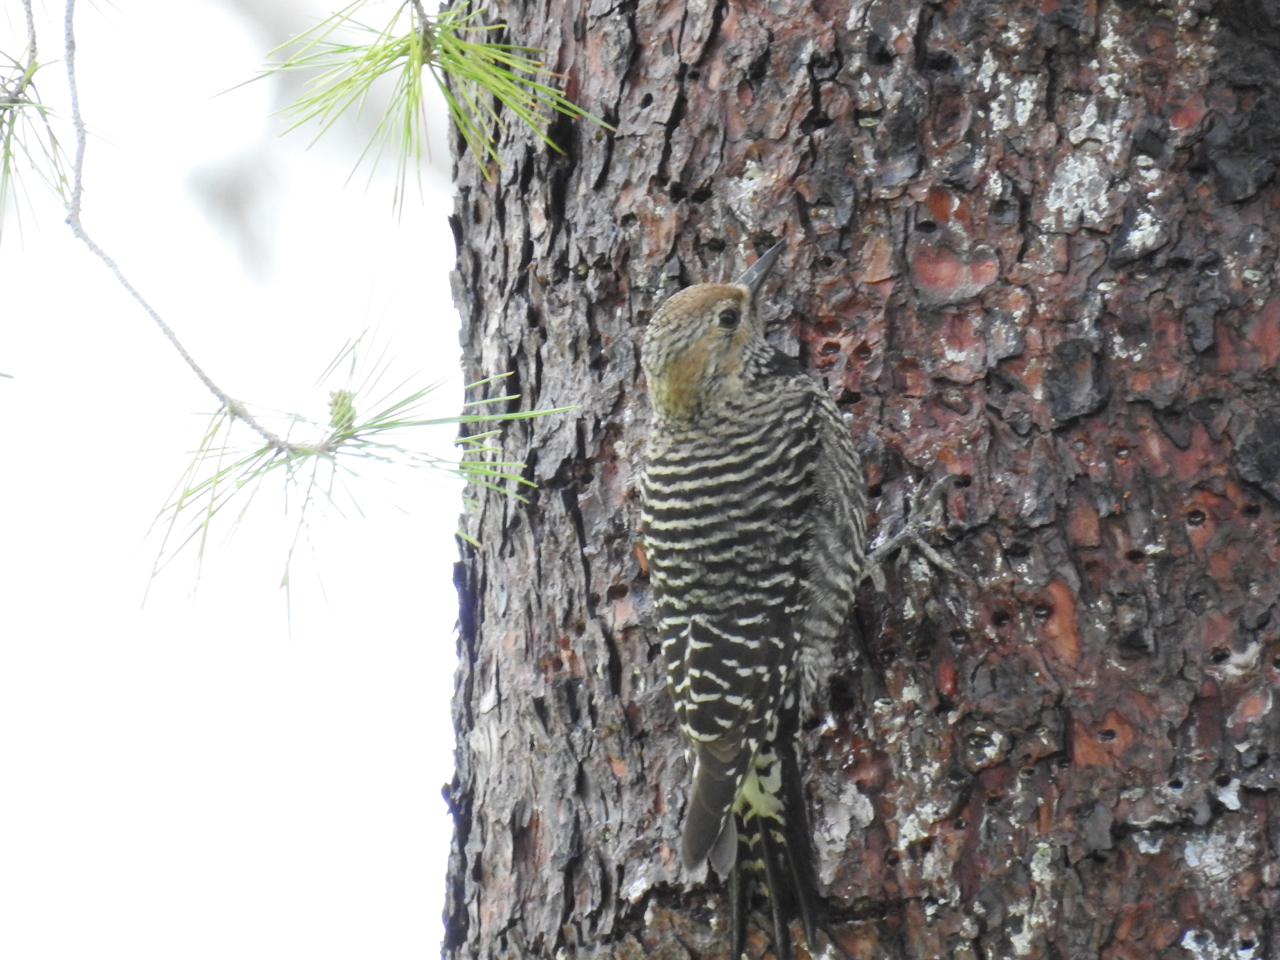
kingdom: Animalia
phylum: Chordata
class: Aves
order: Piciformes
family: Picidae
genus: Sphyrapicus
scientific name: Sphyrapicus thyroideus
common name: Williamson's sapsucker
